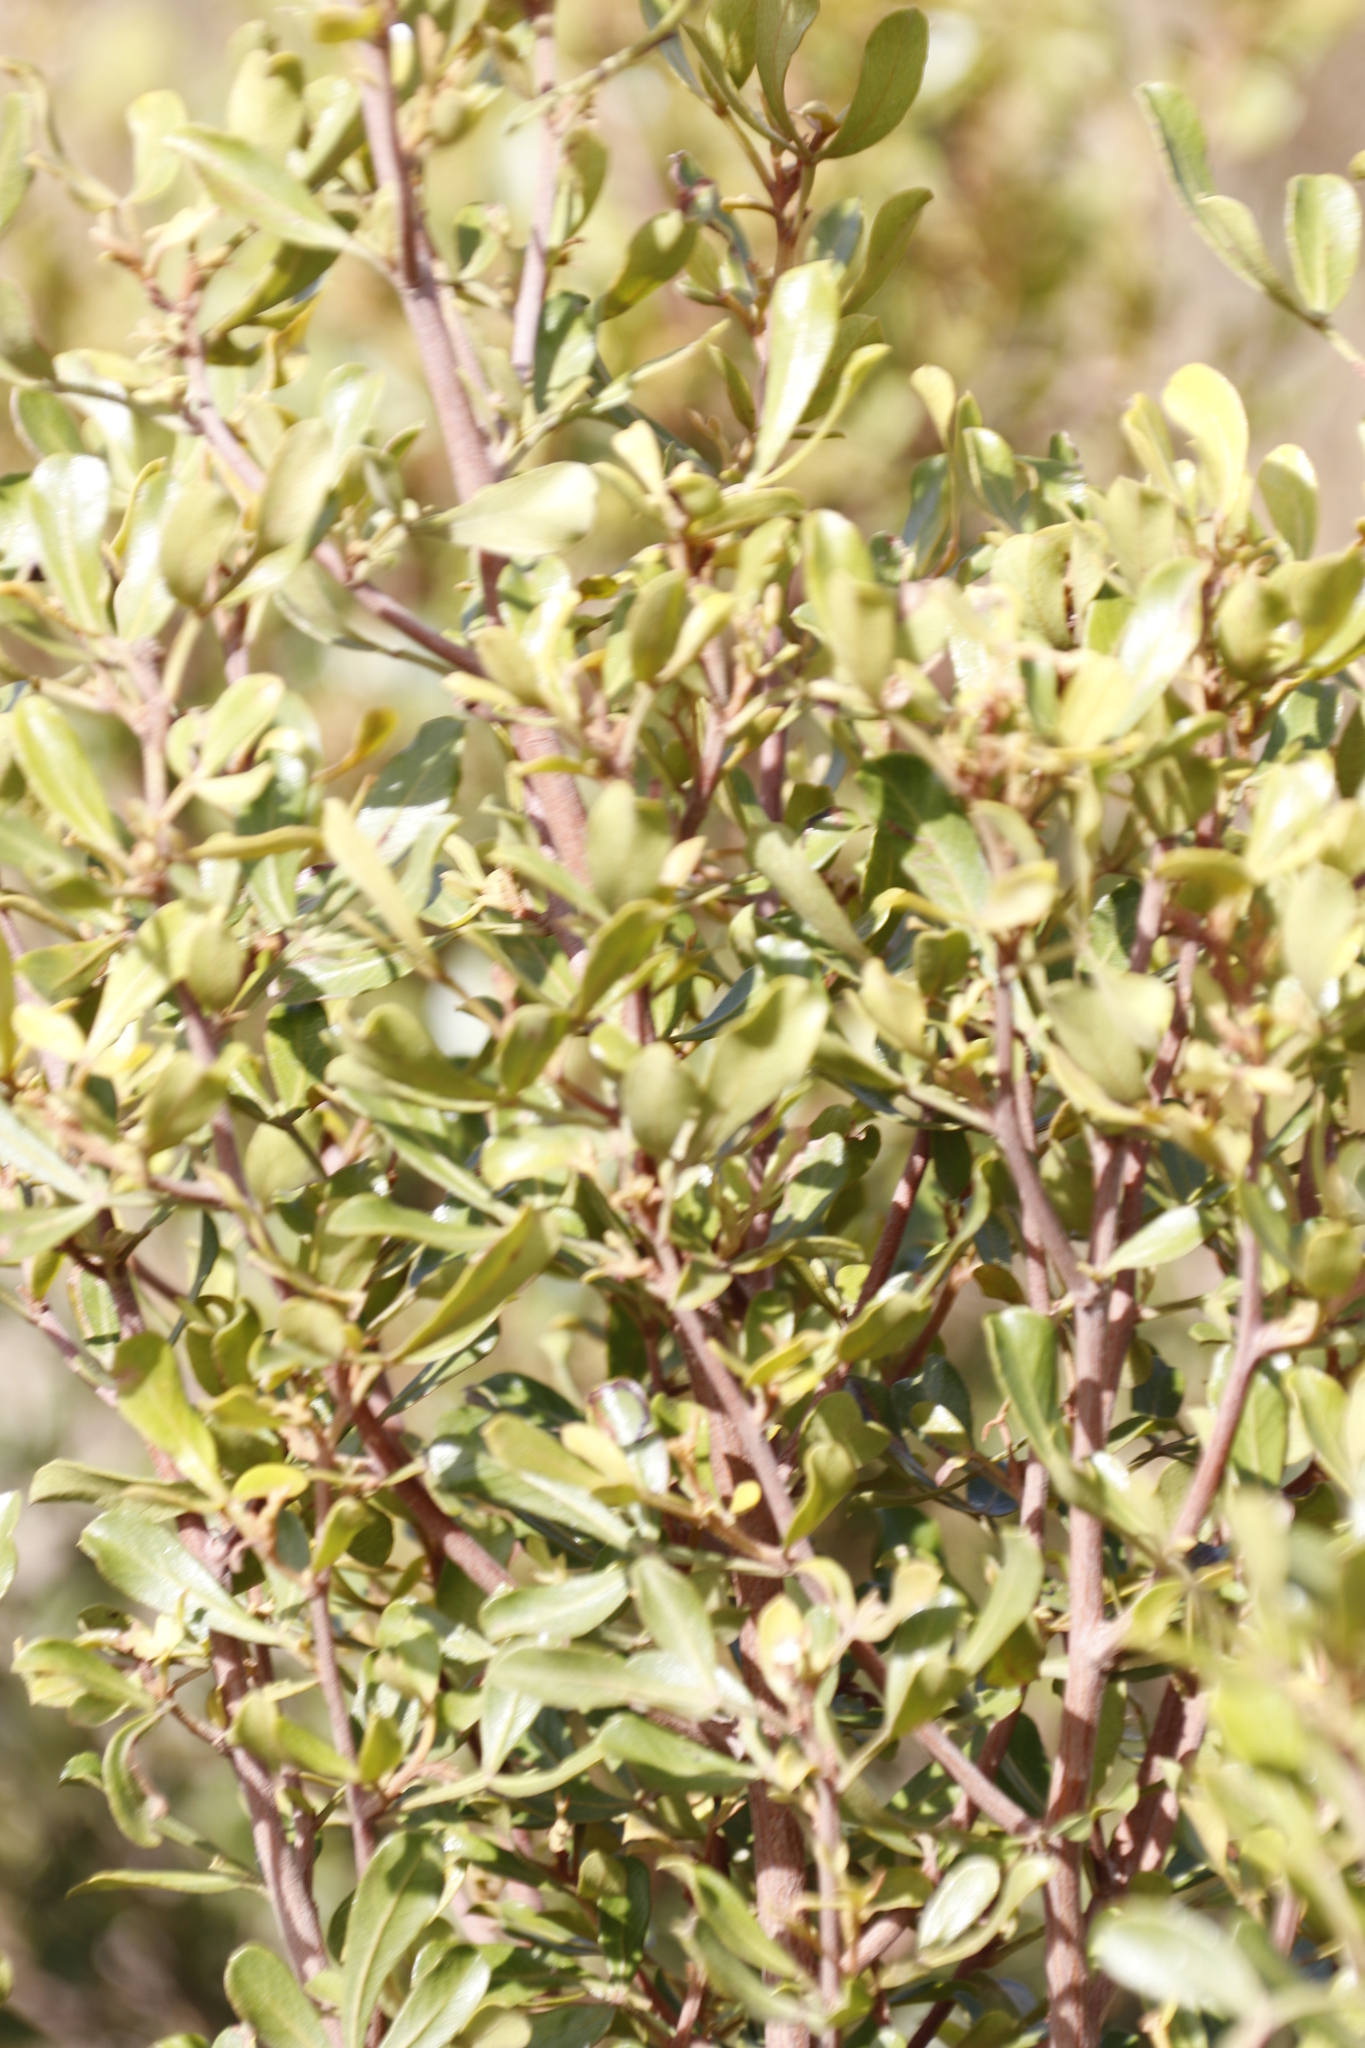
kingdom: Plantae
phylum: Tracheophyta
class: Magnoliopsida
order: Sapindales
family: Anacardiaceae
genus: Searsia
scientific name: Searsia pallens
